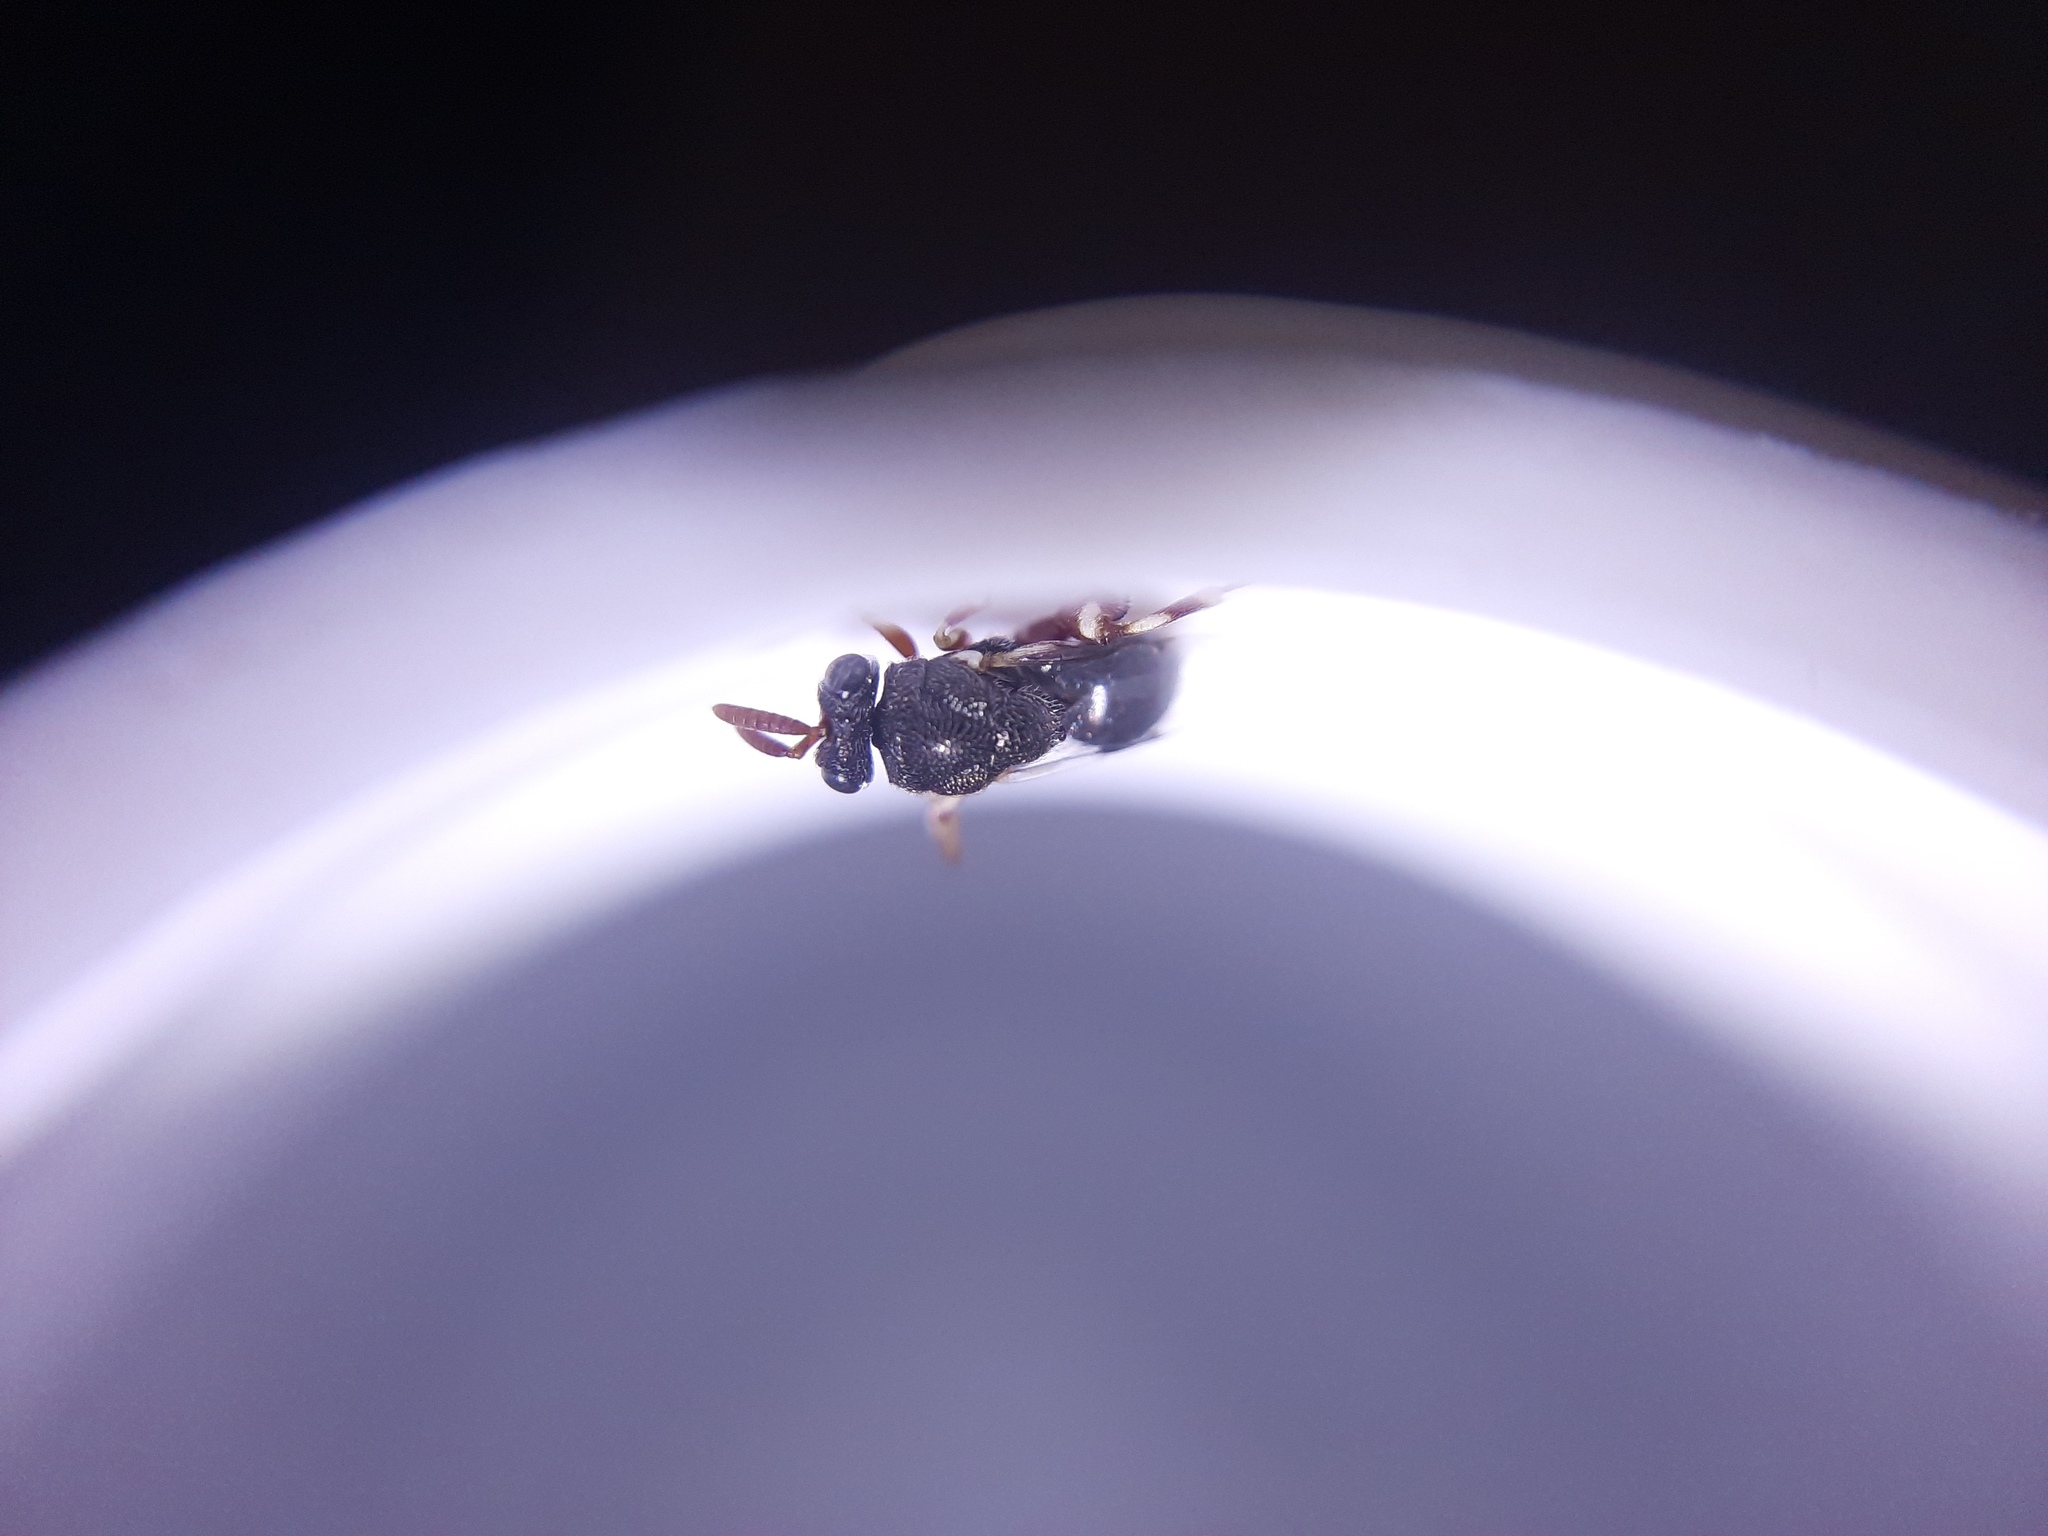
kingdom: Animalia
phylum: Arthropoda
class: Insecta
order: Hymenoptera
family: Chalcididae
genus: Brachymeria
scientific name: Brachymeria podagrica
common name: Chalcid wasp
